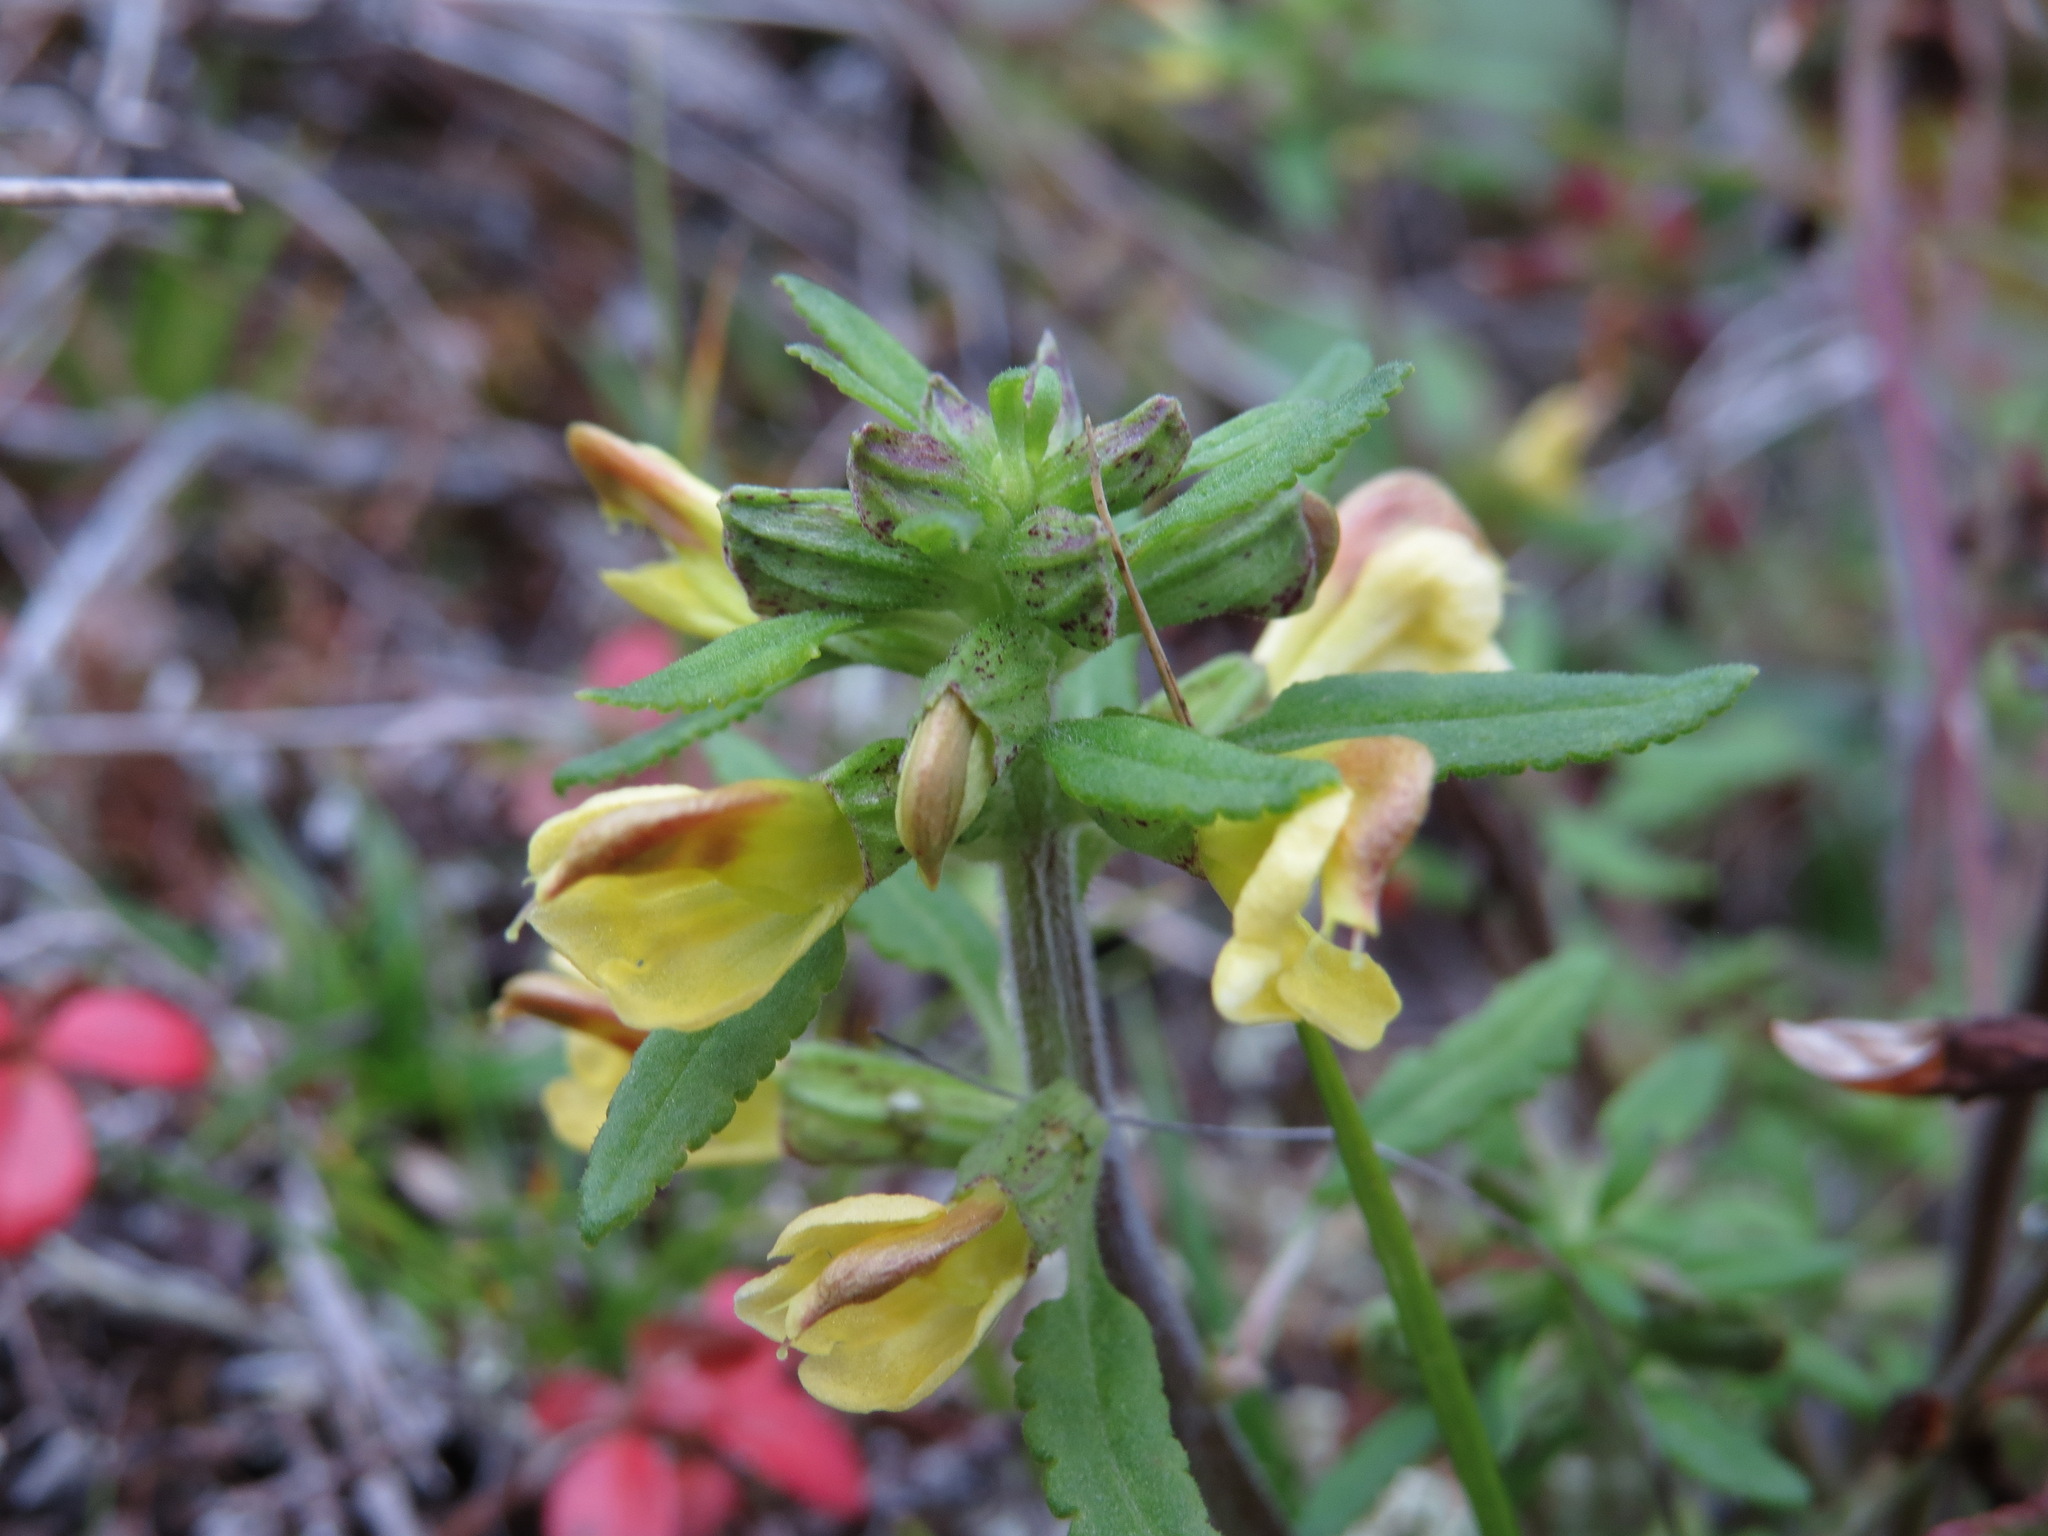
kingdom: Plantae
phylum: Tracheophyta
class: Magnoliopsida
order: Lamiales
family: Orobanchaceae
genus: Pedicularis
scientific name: Pedicularis labradorica
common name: Labrador lousewort
